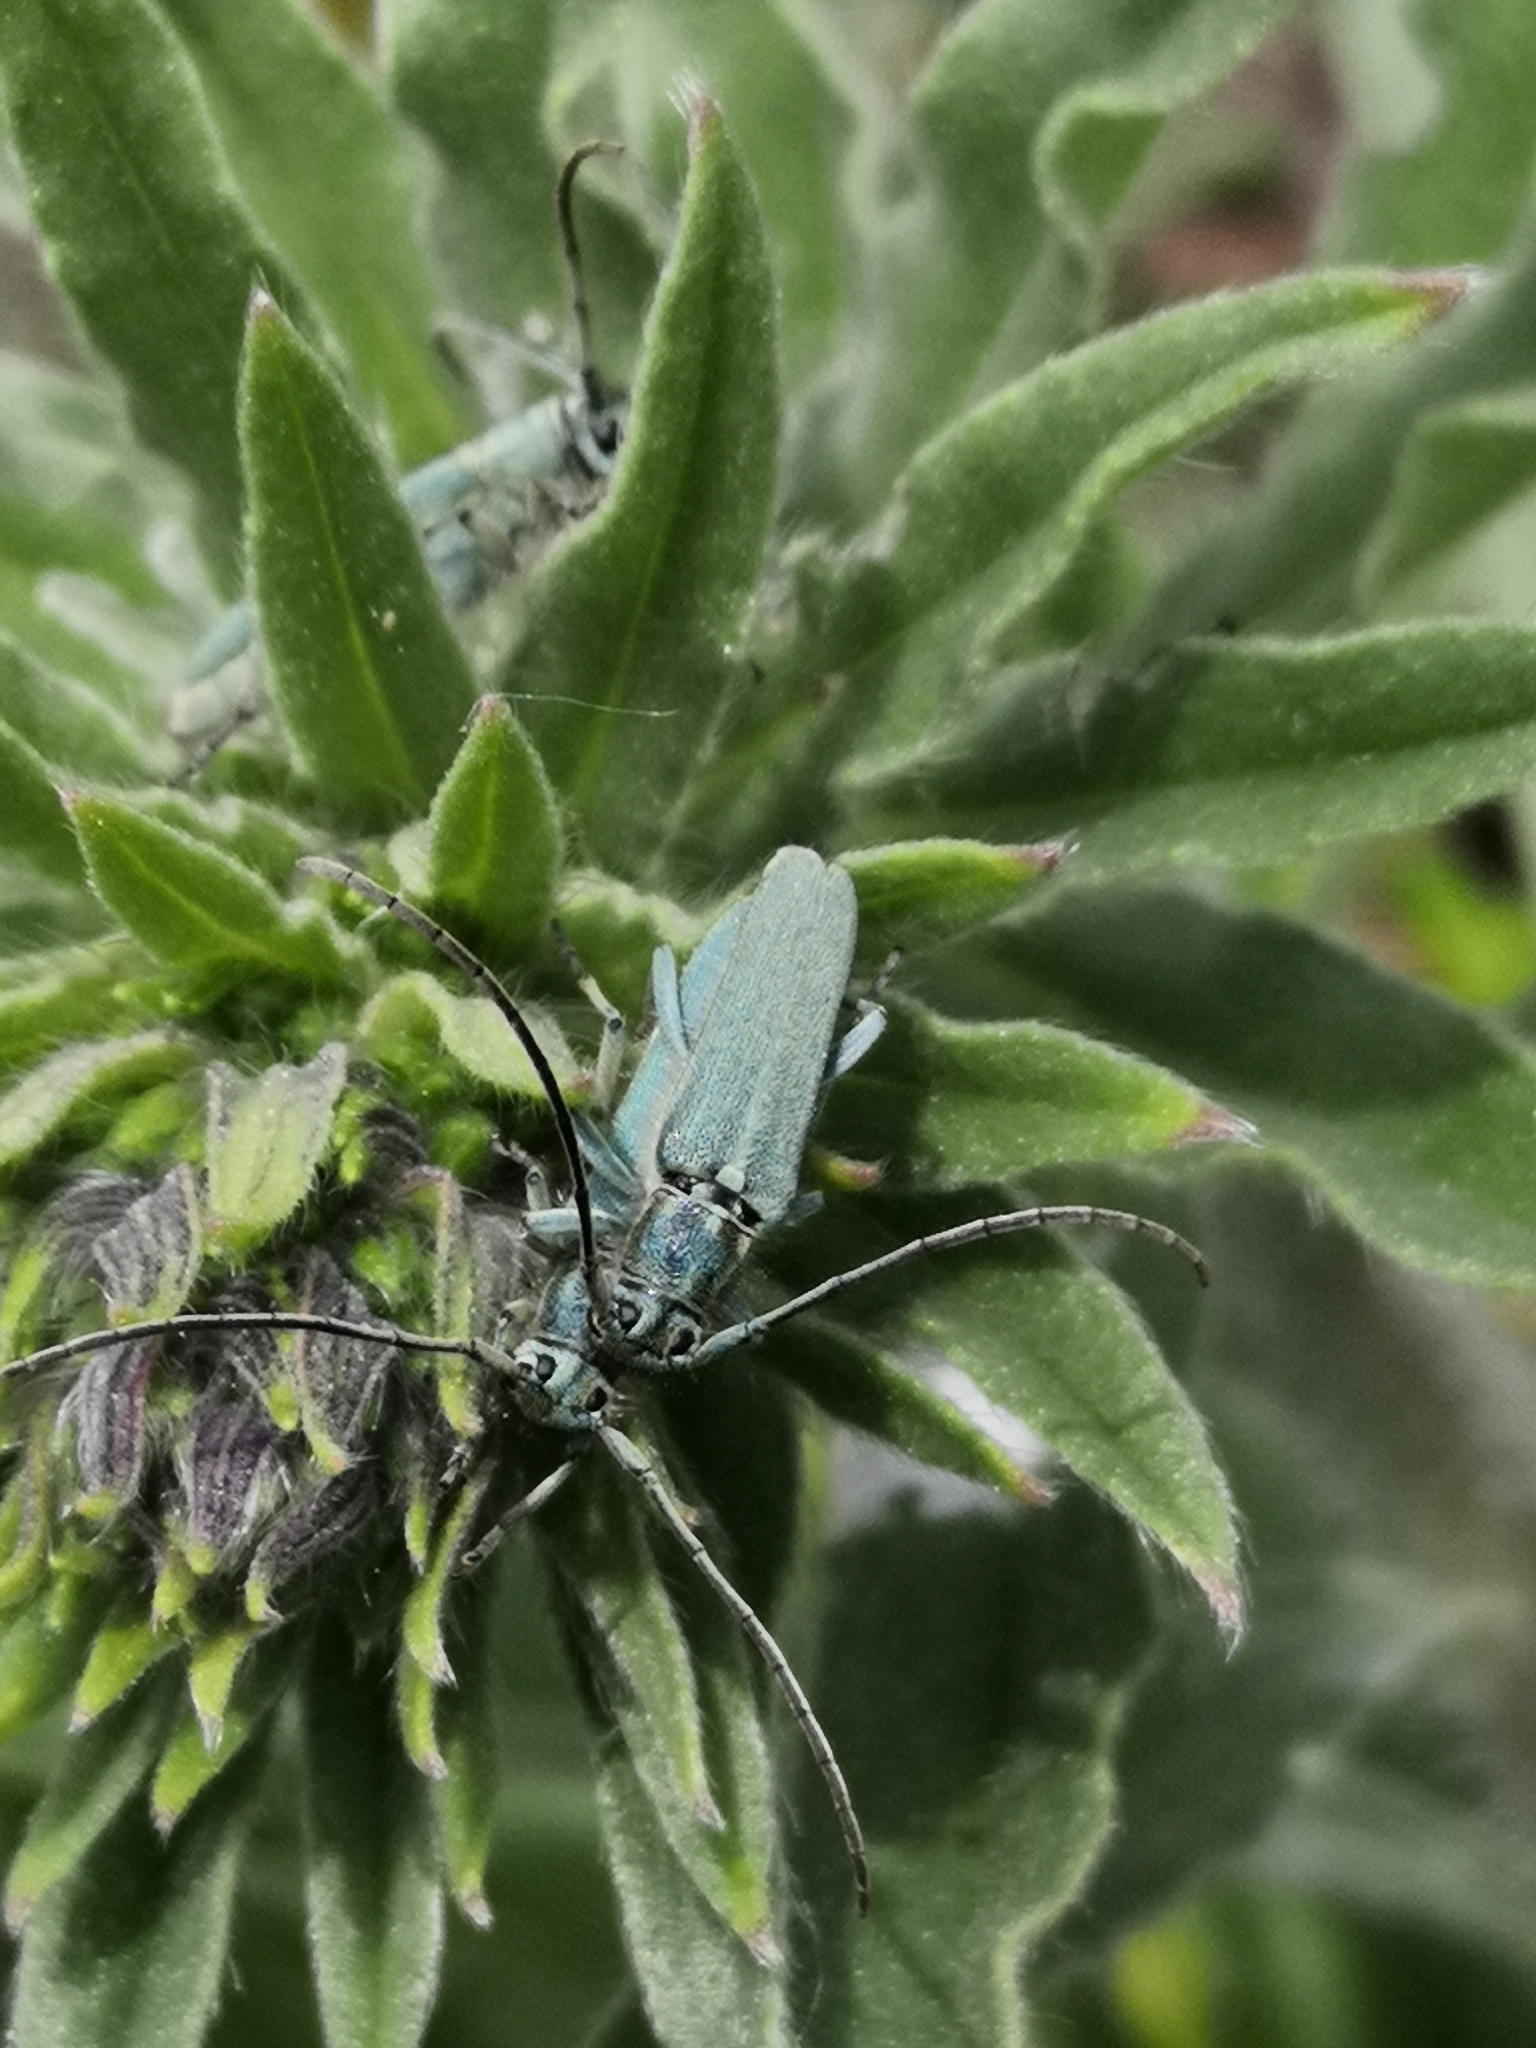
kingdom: Animalia
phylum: Arthropoda
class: Insecta
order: Coleoptera
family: Cerambycidae
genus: Phytoecia
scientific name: Phytoecia coerulescens
